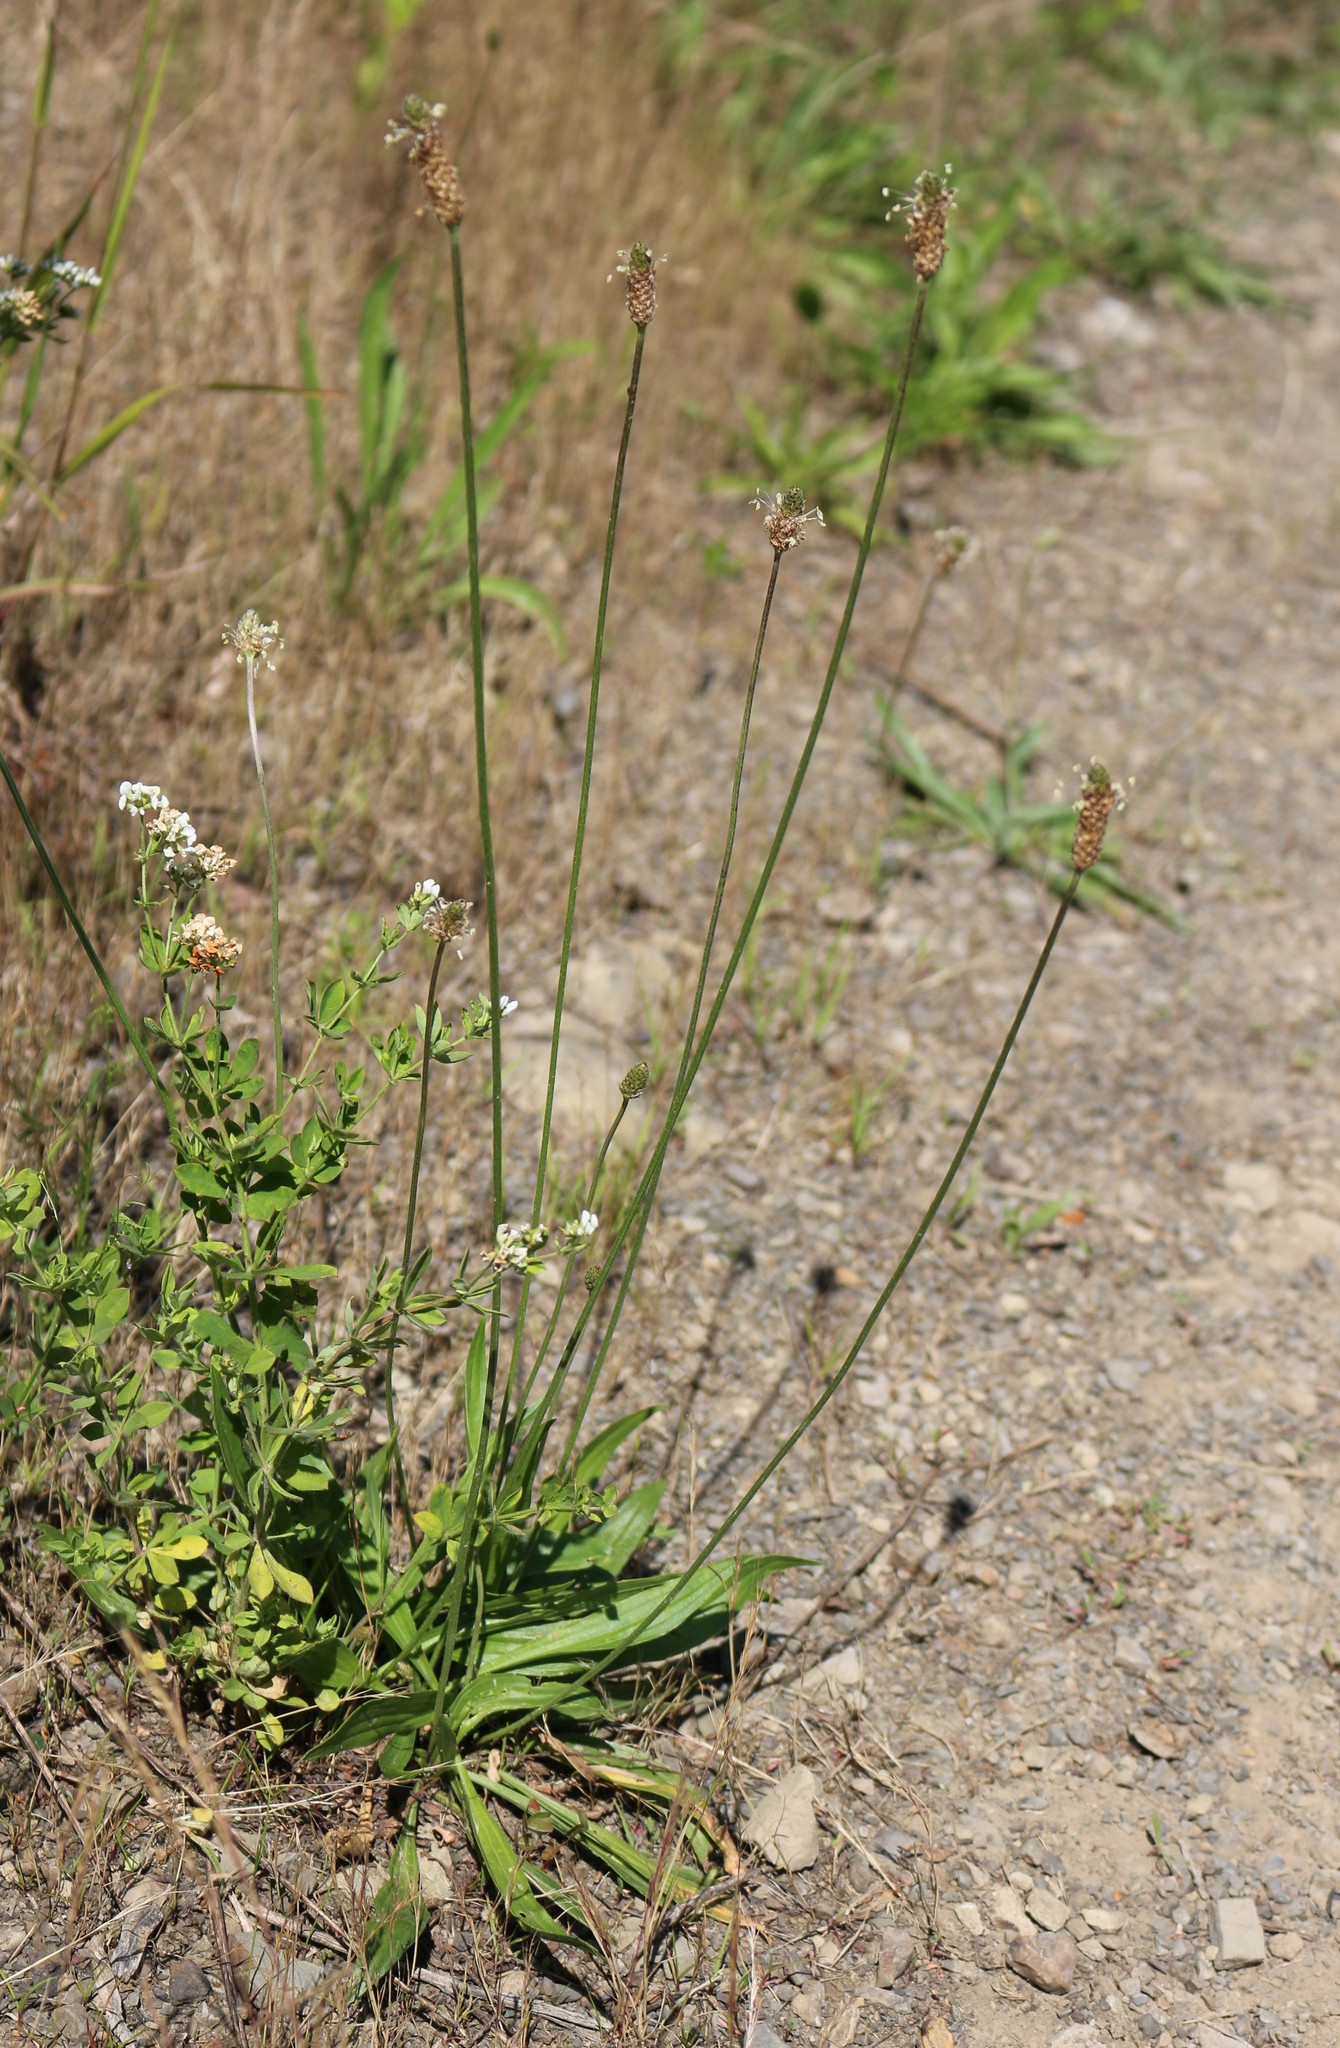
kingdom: Plantae
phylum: Tracheophyta
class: Magnoliopsida
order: Lamiales
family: Plantaginaceae
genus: Plantago
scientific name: Plantago lanceolata
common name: Ribwort plantain
